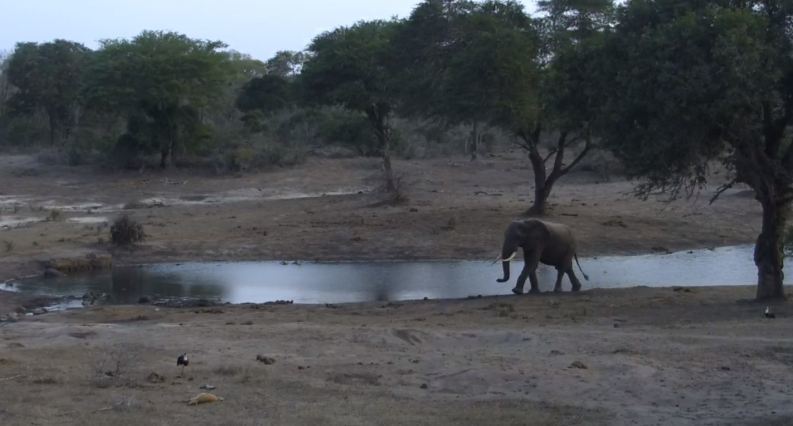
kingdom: Animalia
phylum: Chordata
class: Mammalia
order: Proboscidea
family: Elephantidae
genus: Loxodonta
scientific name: Loxodonta africana
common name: African elephant
